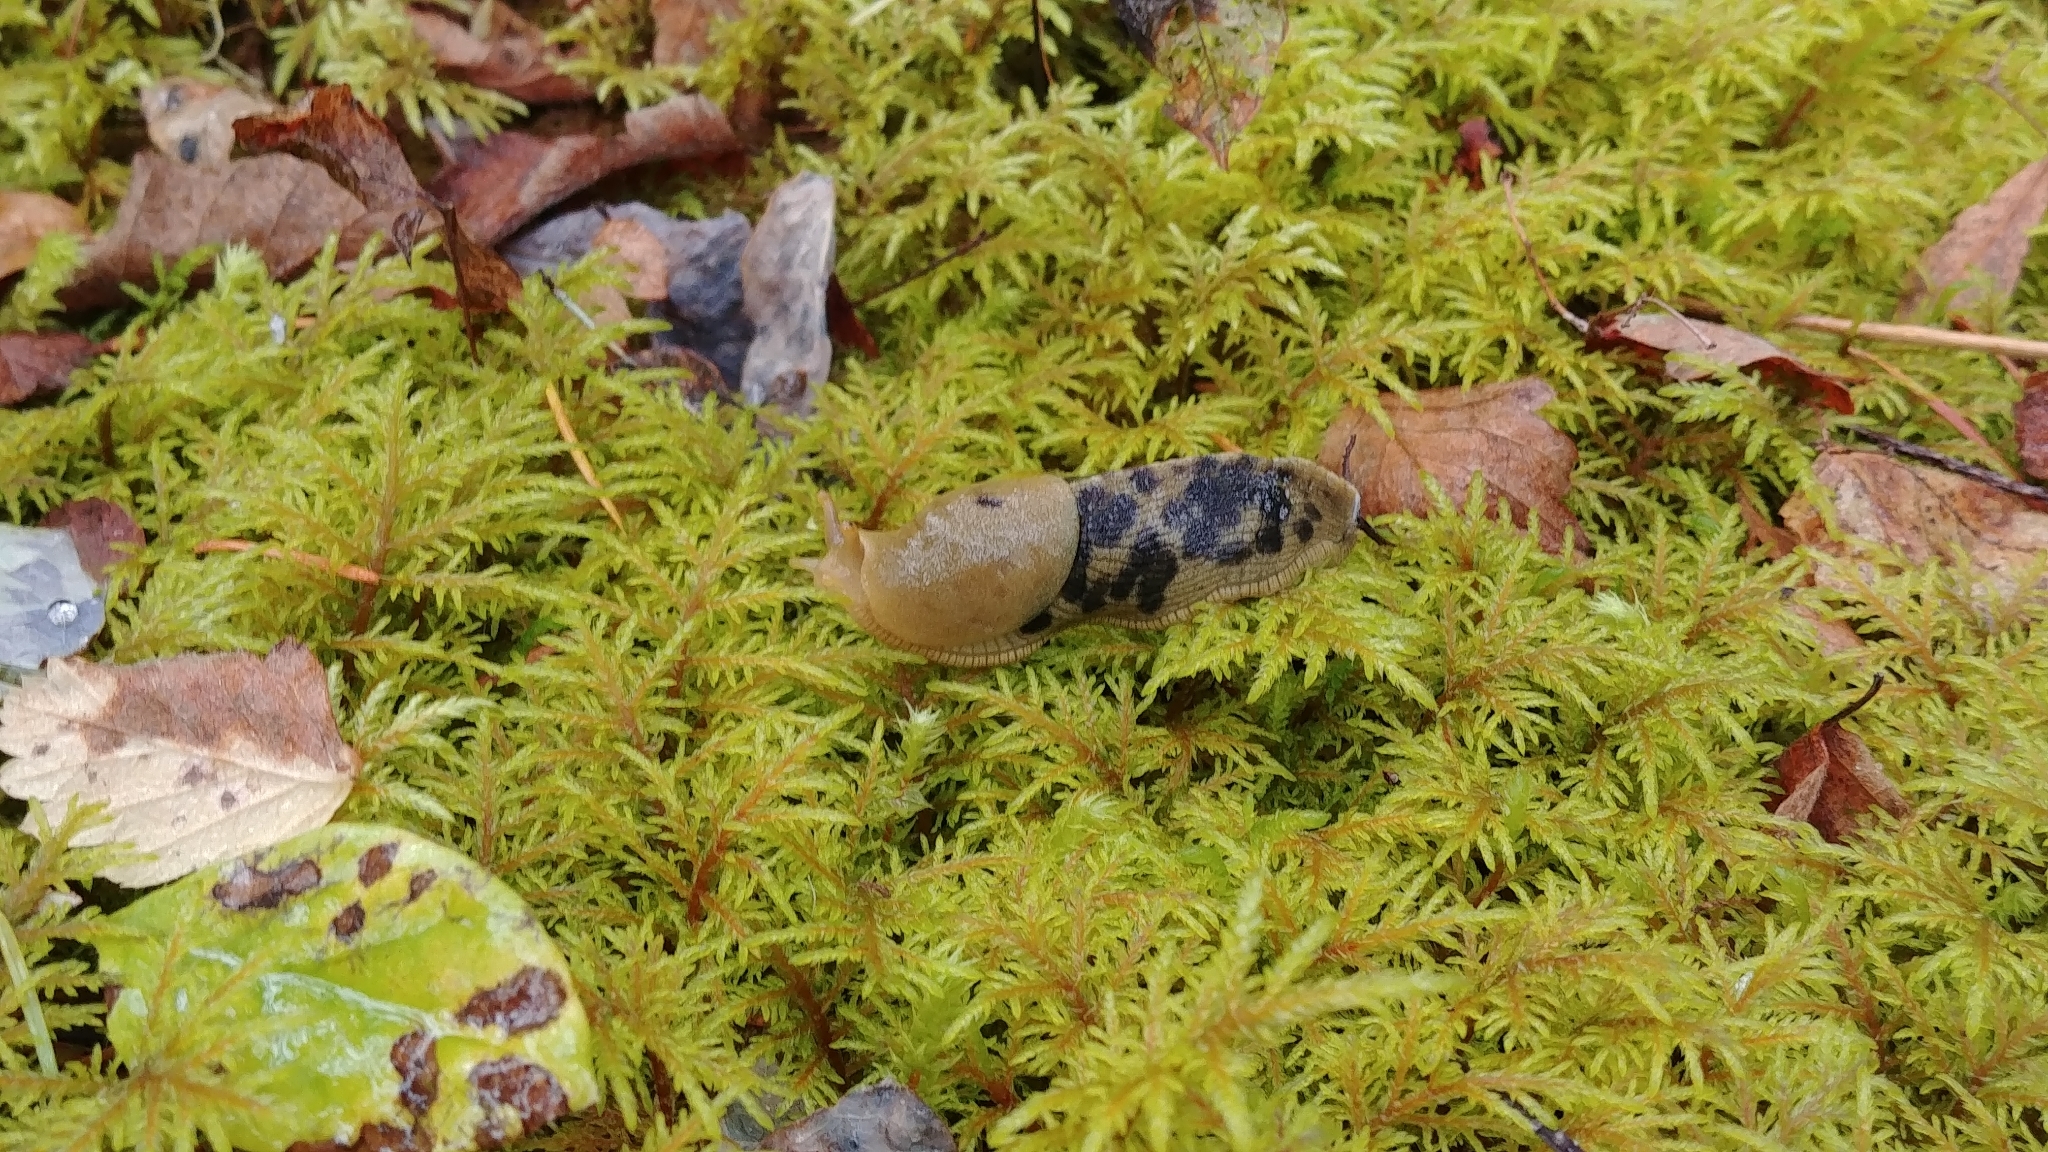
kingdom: Animalia
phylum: Mollusca
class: Gastropoda
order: Stylommatophora
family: Ariolimacidae
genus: Ariolimax
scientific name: Ariolimax columbianus
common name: Pacific banana slug
